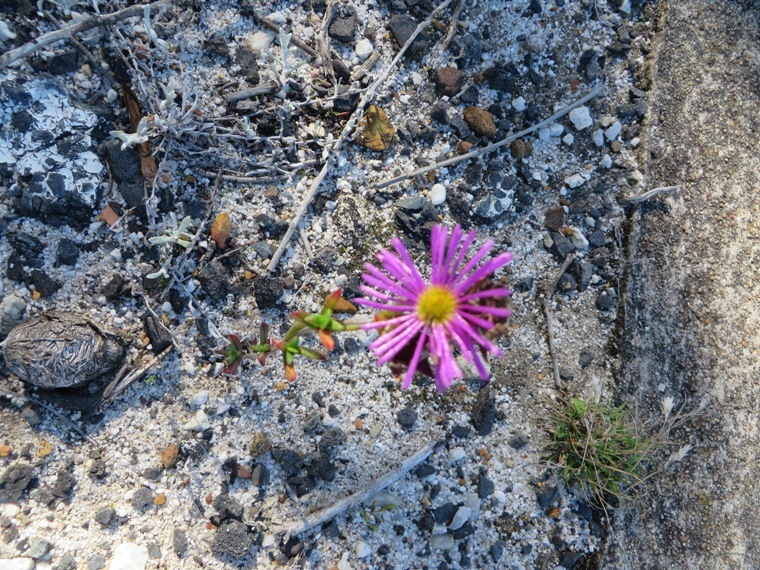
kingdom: Plantae
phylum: Tracheophyta
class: Magnoliopsida
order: Caryophyllales
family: Aizoaceae
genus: Erepsia
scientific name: Erepsia bracteata
